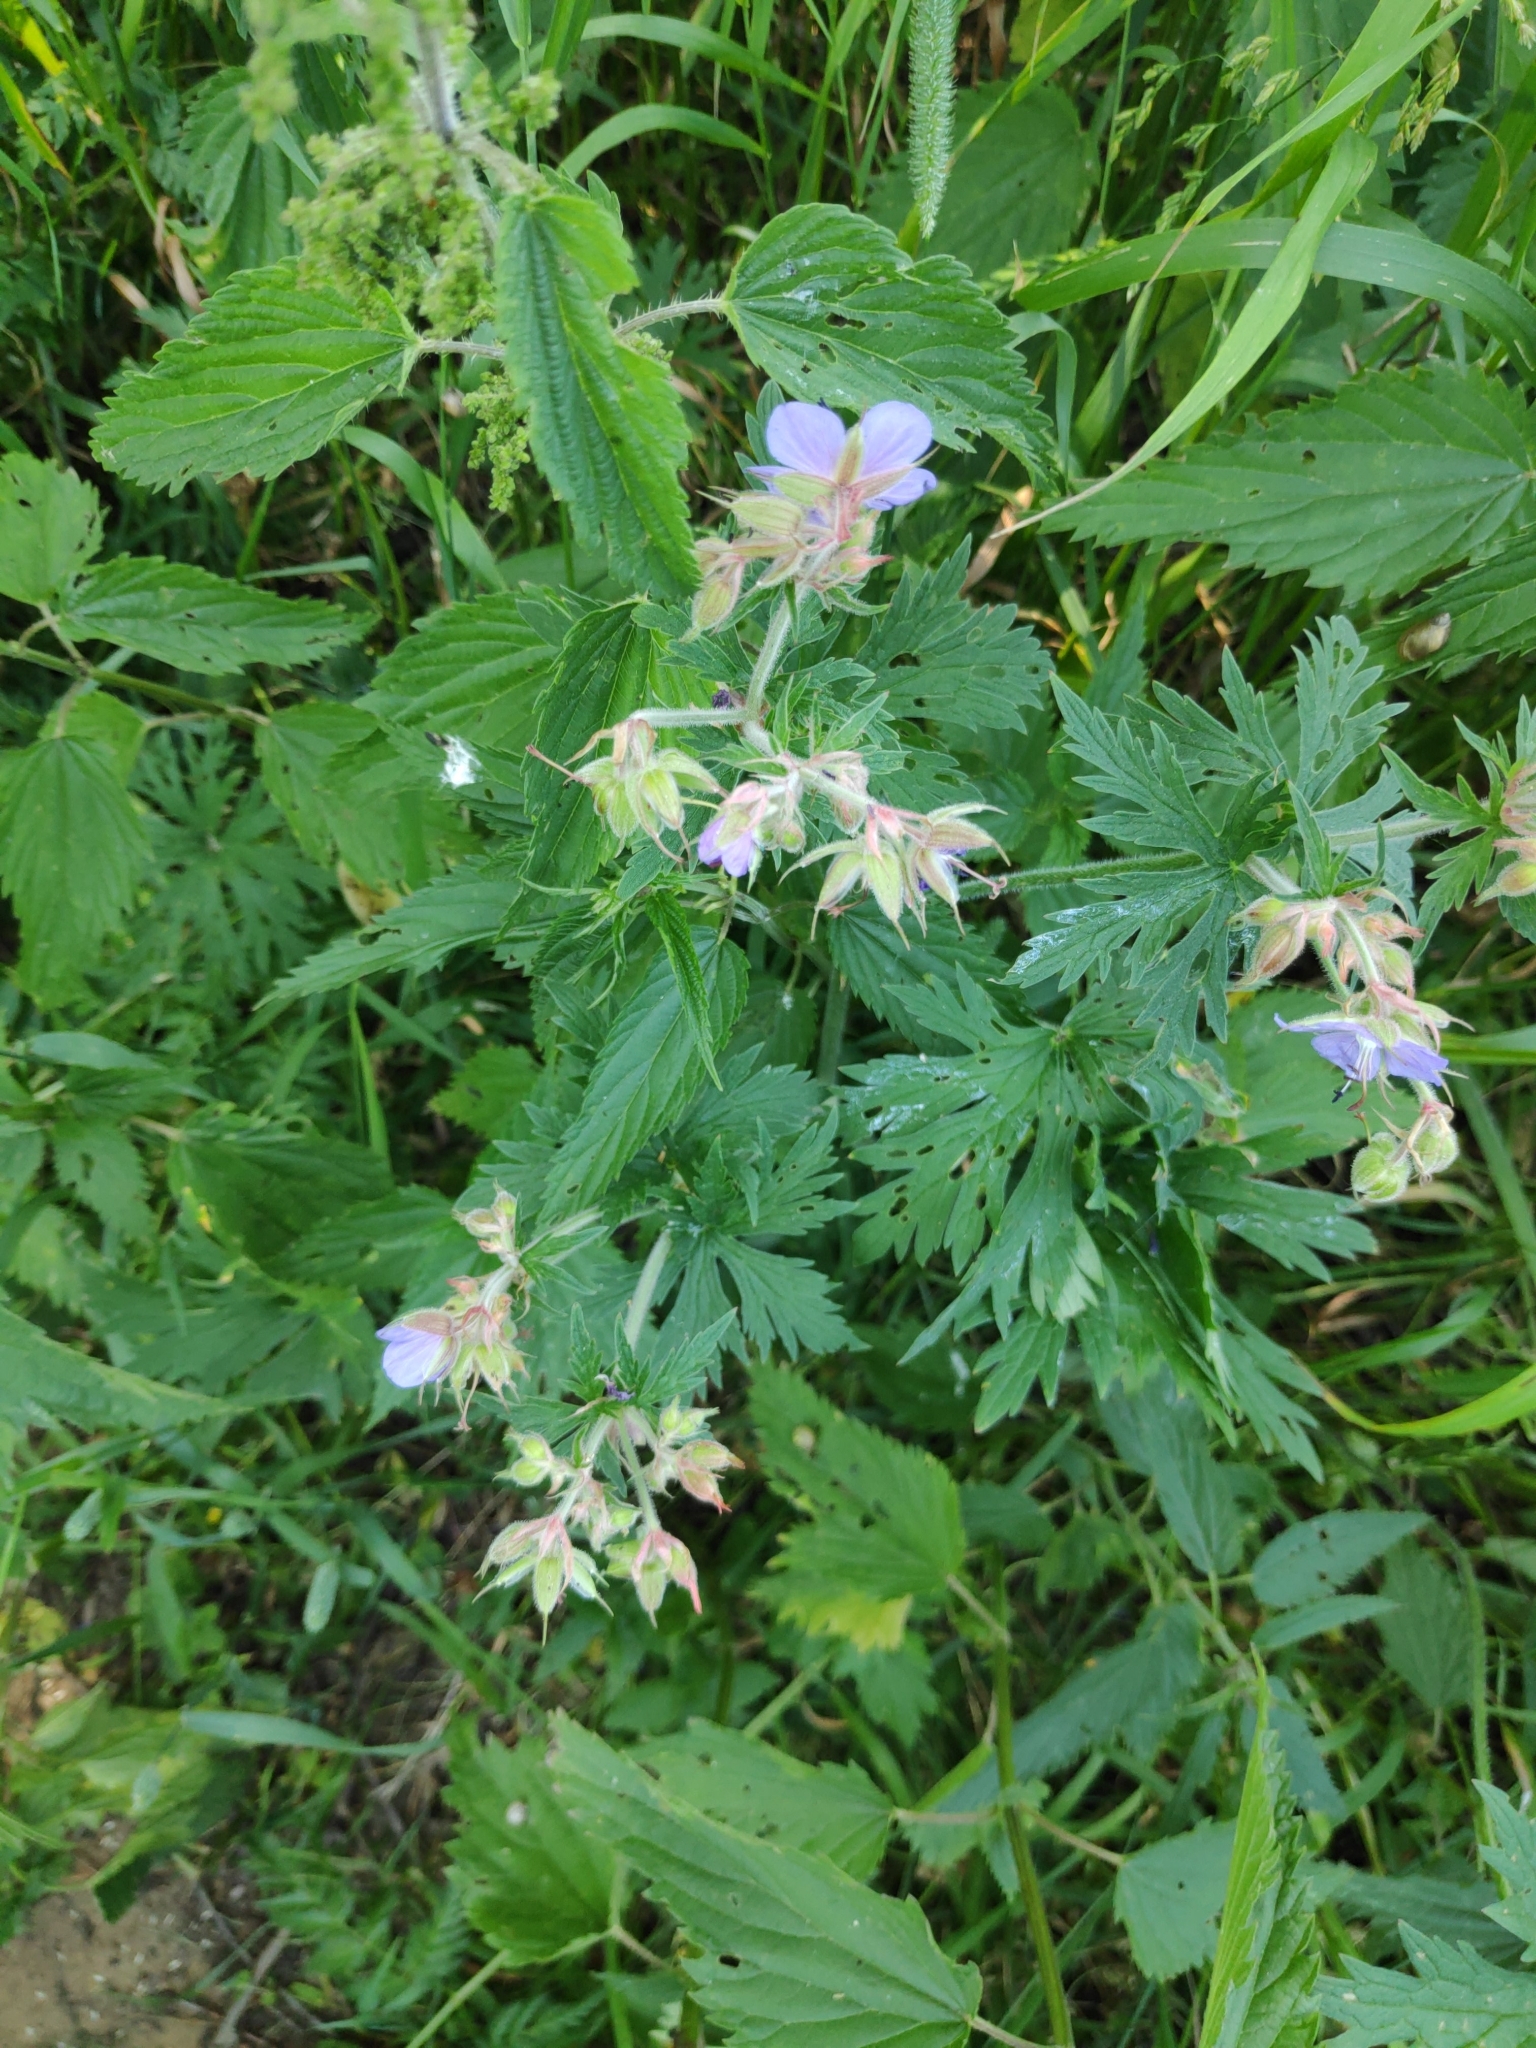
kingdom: Plantae
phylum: Tracheophyta
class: Magnoliopsida
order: Geraniales
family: Geraniaceae
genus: Geranium
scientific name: Geranium pratense
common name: Meadow crane's-bill
